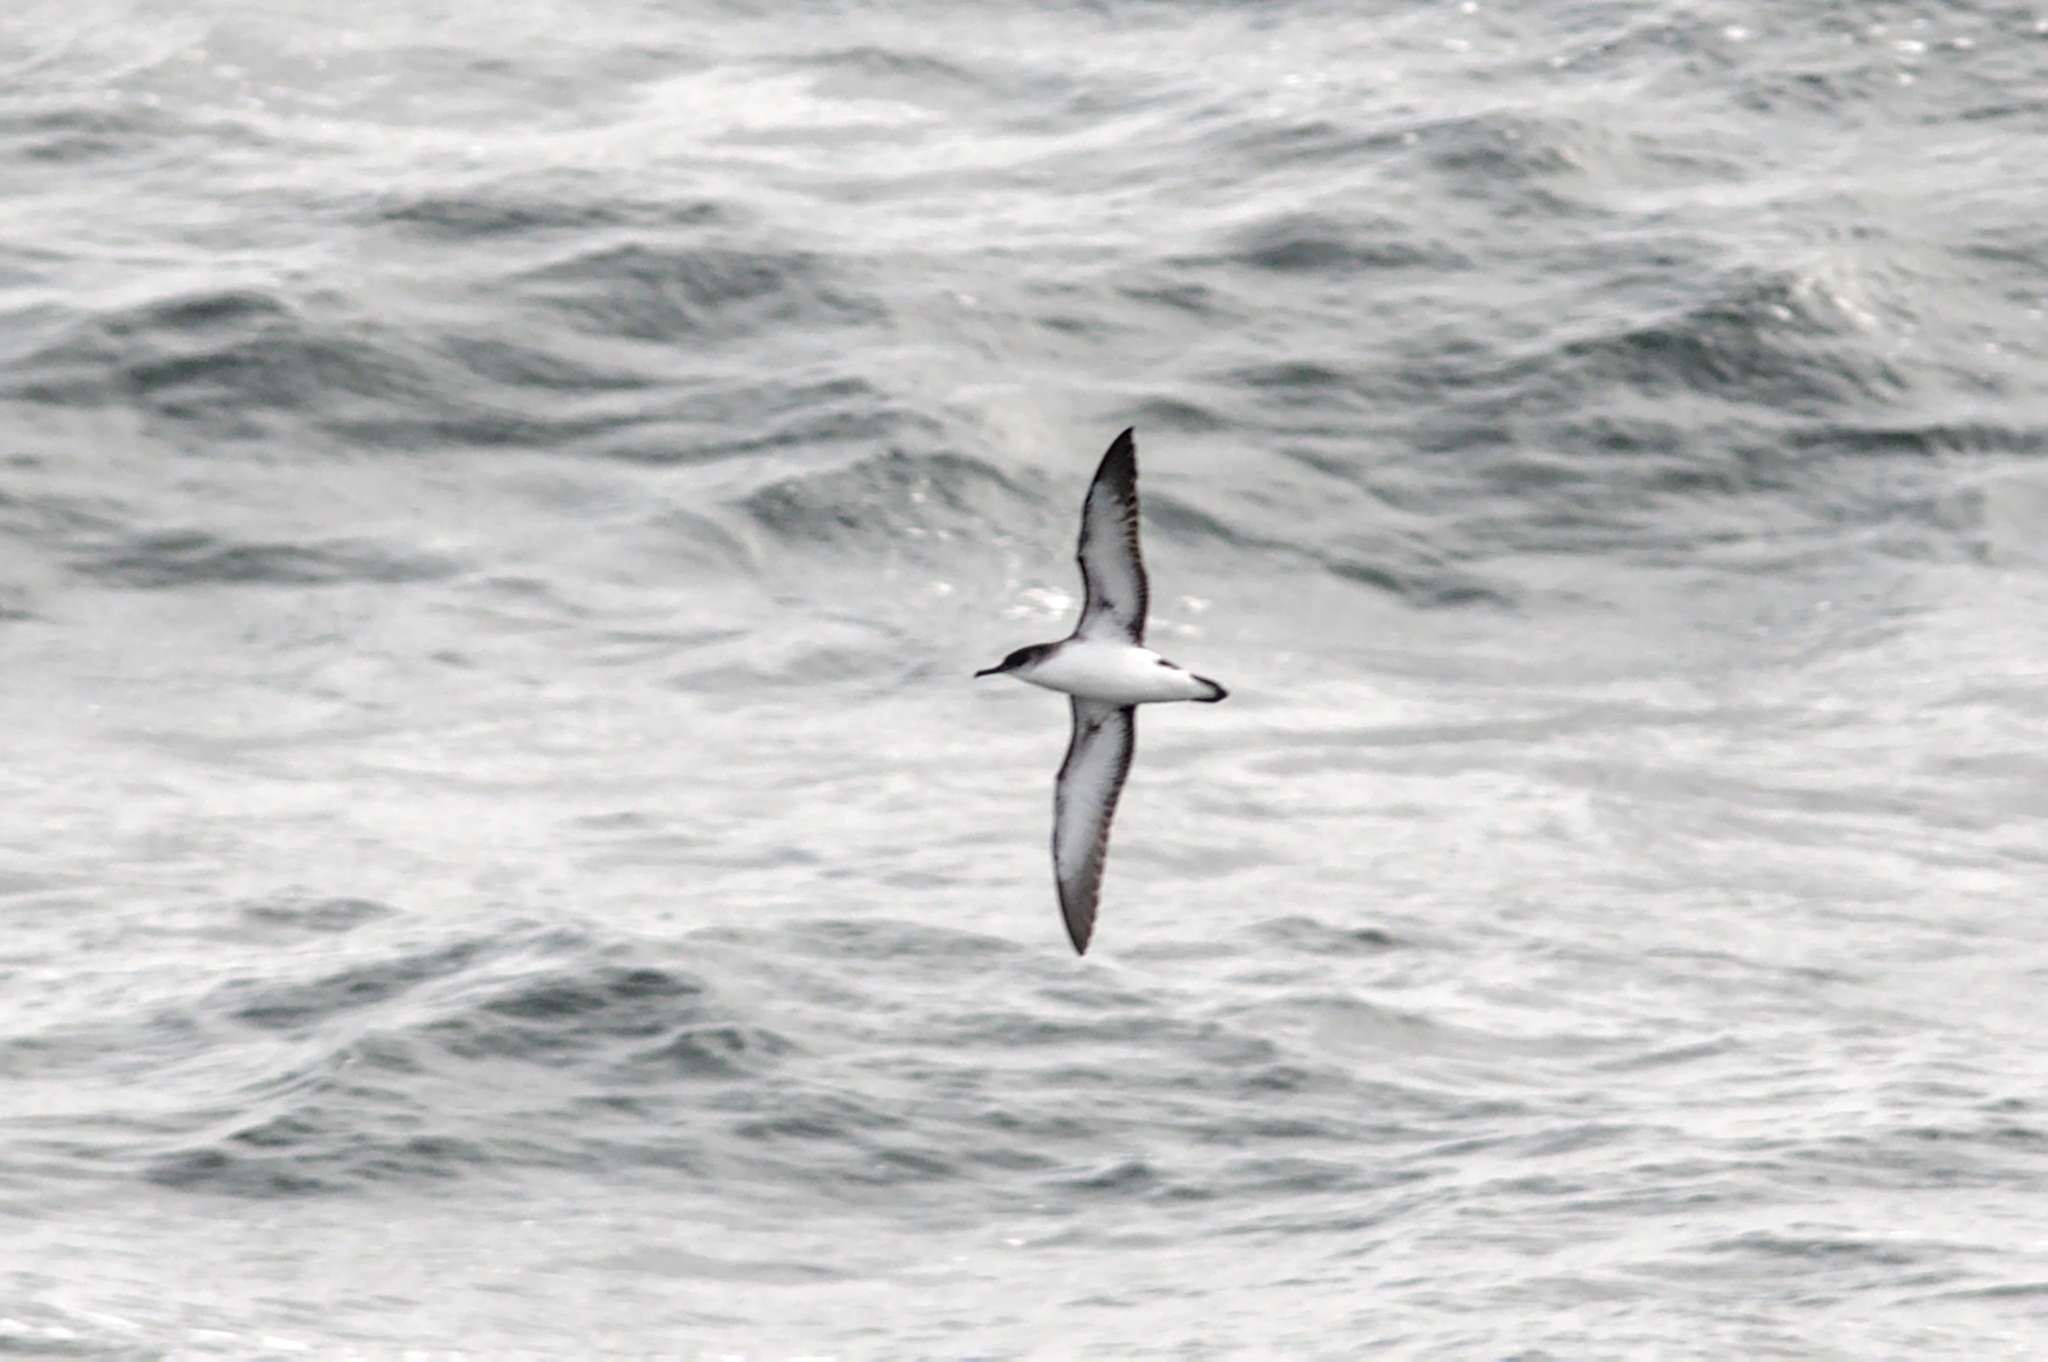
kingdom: Animalia
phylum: Chordata
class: Aves
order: Procellariiformes
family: Procellariidae
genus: Puffinus
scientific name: Puffinus puffinus
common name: Manx shearwater
